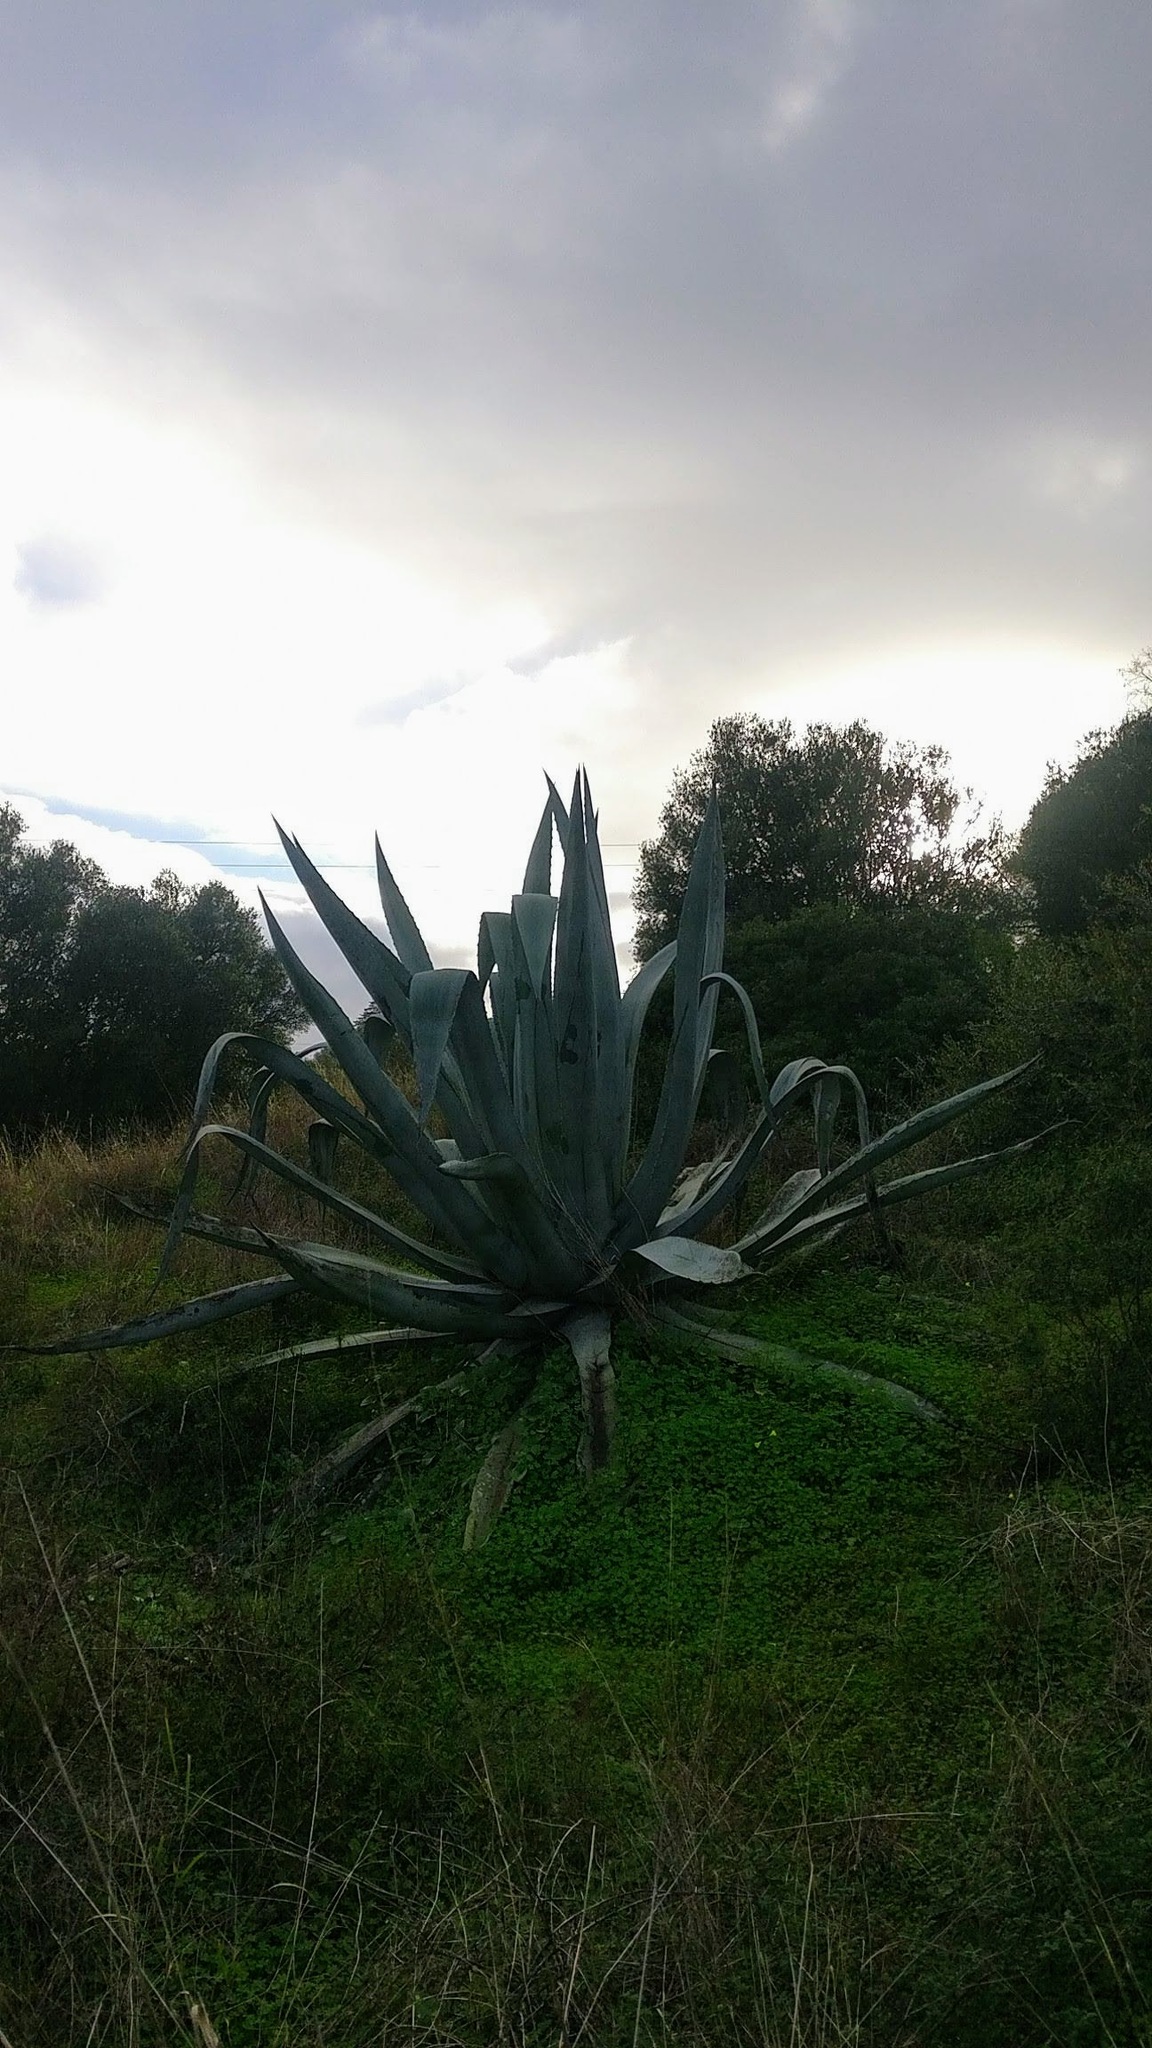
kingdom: Plantae
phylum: Tracheophyta
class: Liliopsida
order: Asparagales
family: Asparagaceae
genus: Agave
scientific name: Agave americana
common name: Centuryplant
